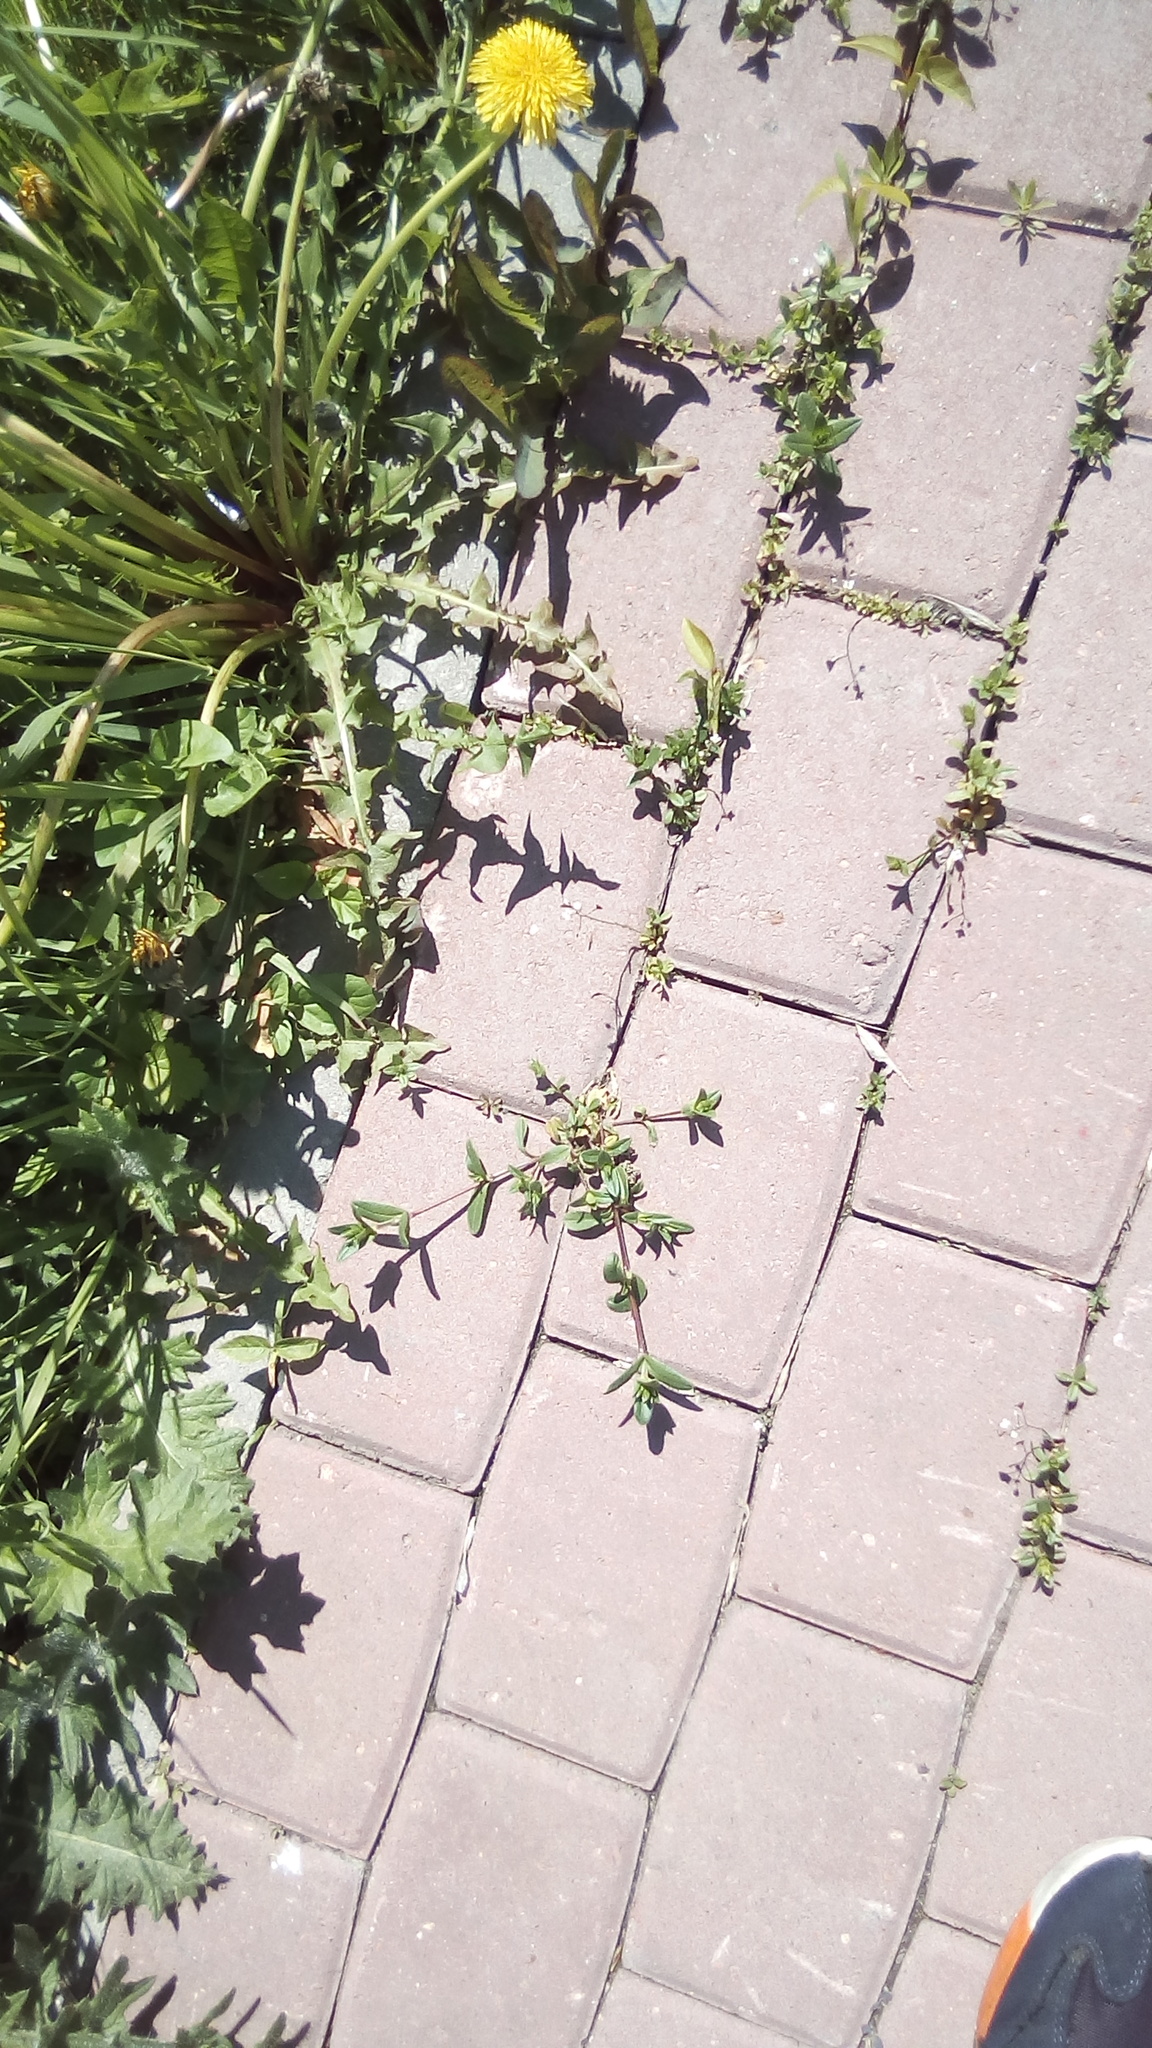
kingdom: Plantae
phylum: Tracheophyta
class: Magnoliopsida
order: Caryophyllales
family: Caryophyllaceae
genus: Cerastium
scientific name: Cerastium holosteoides
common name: Big chickweed
